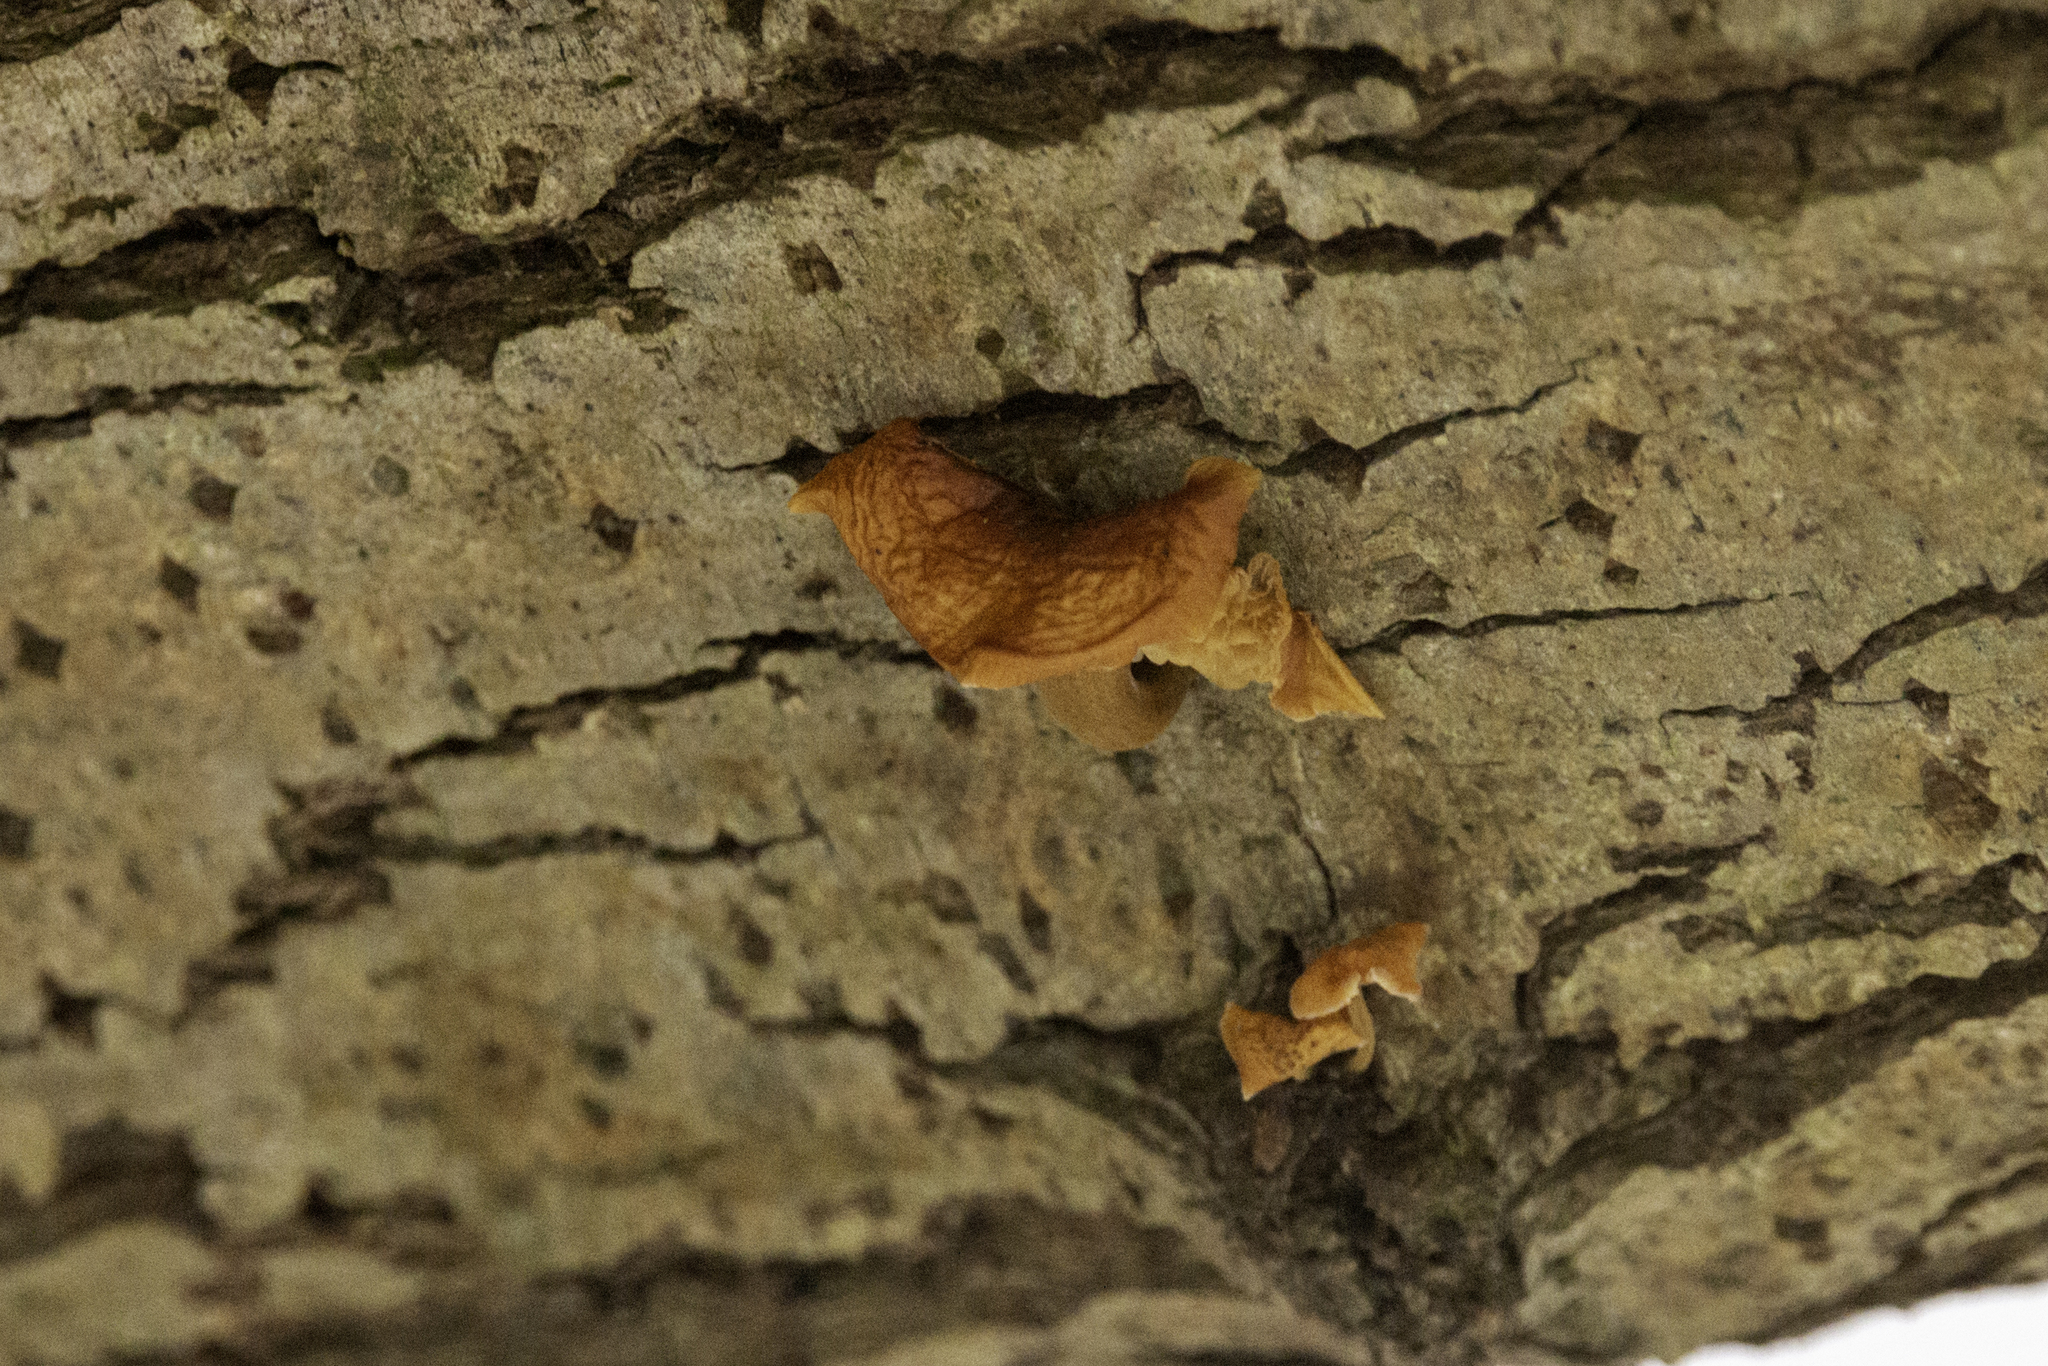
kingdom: Fungi
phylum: Basidiomycota
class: Agaricomycetes
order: Agaricales
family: Physalacriaceae
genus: Flammulina
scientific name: Flammulina
